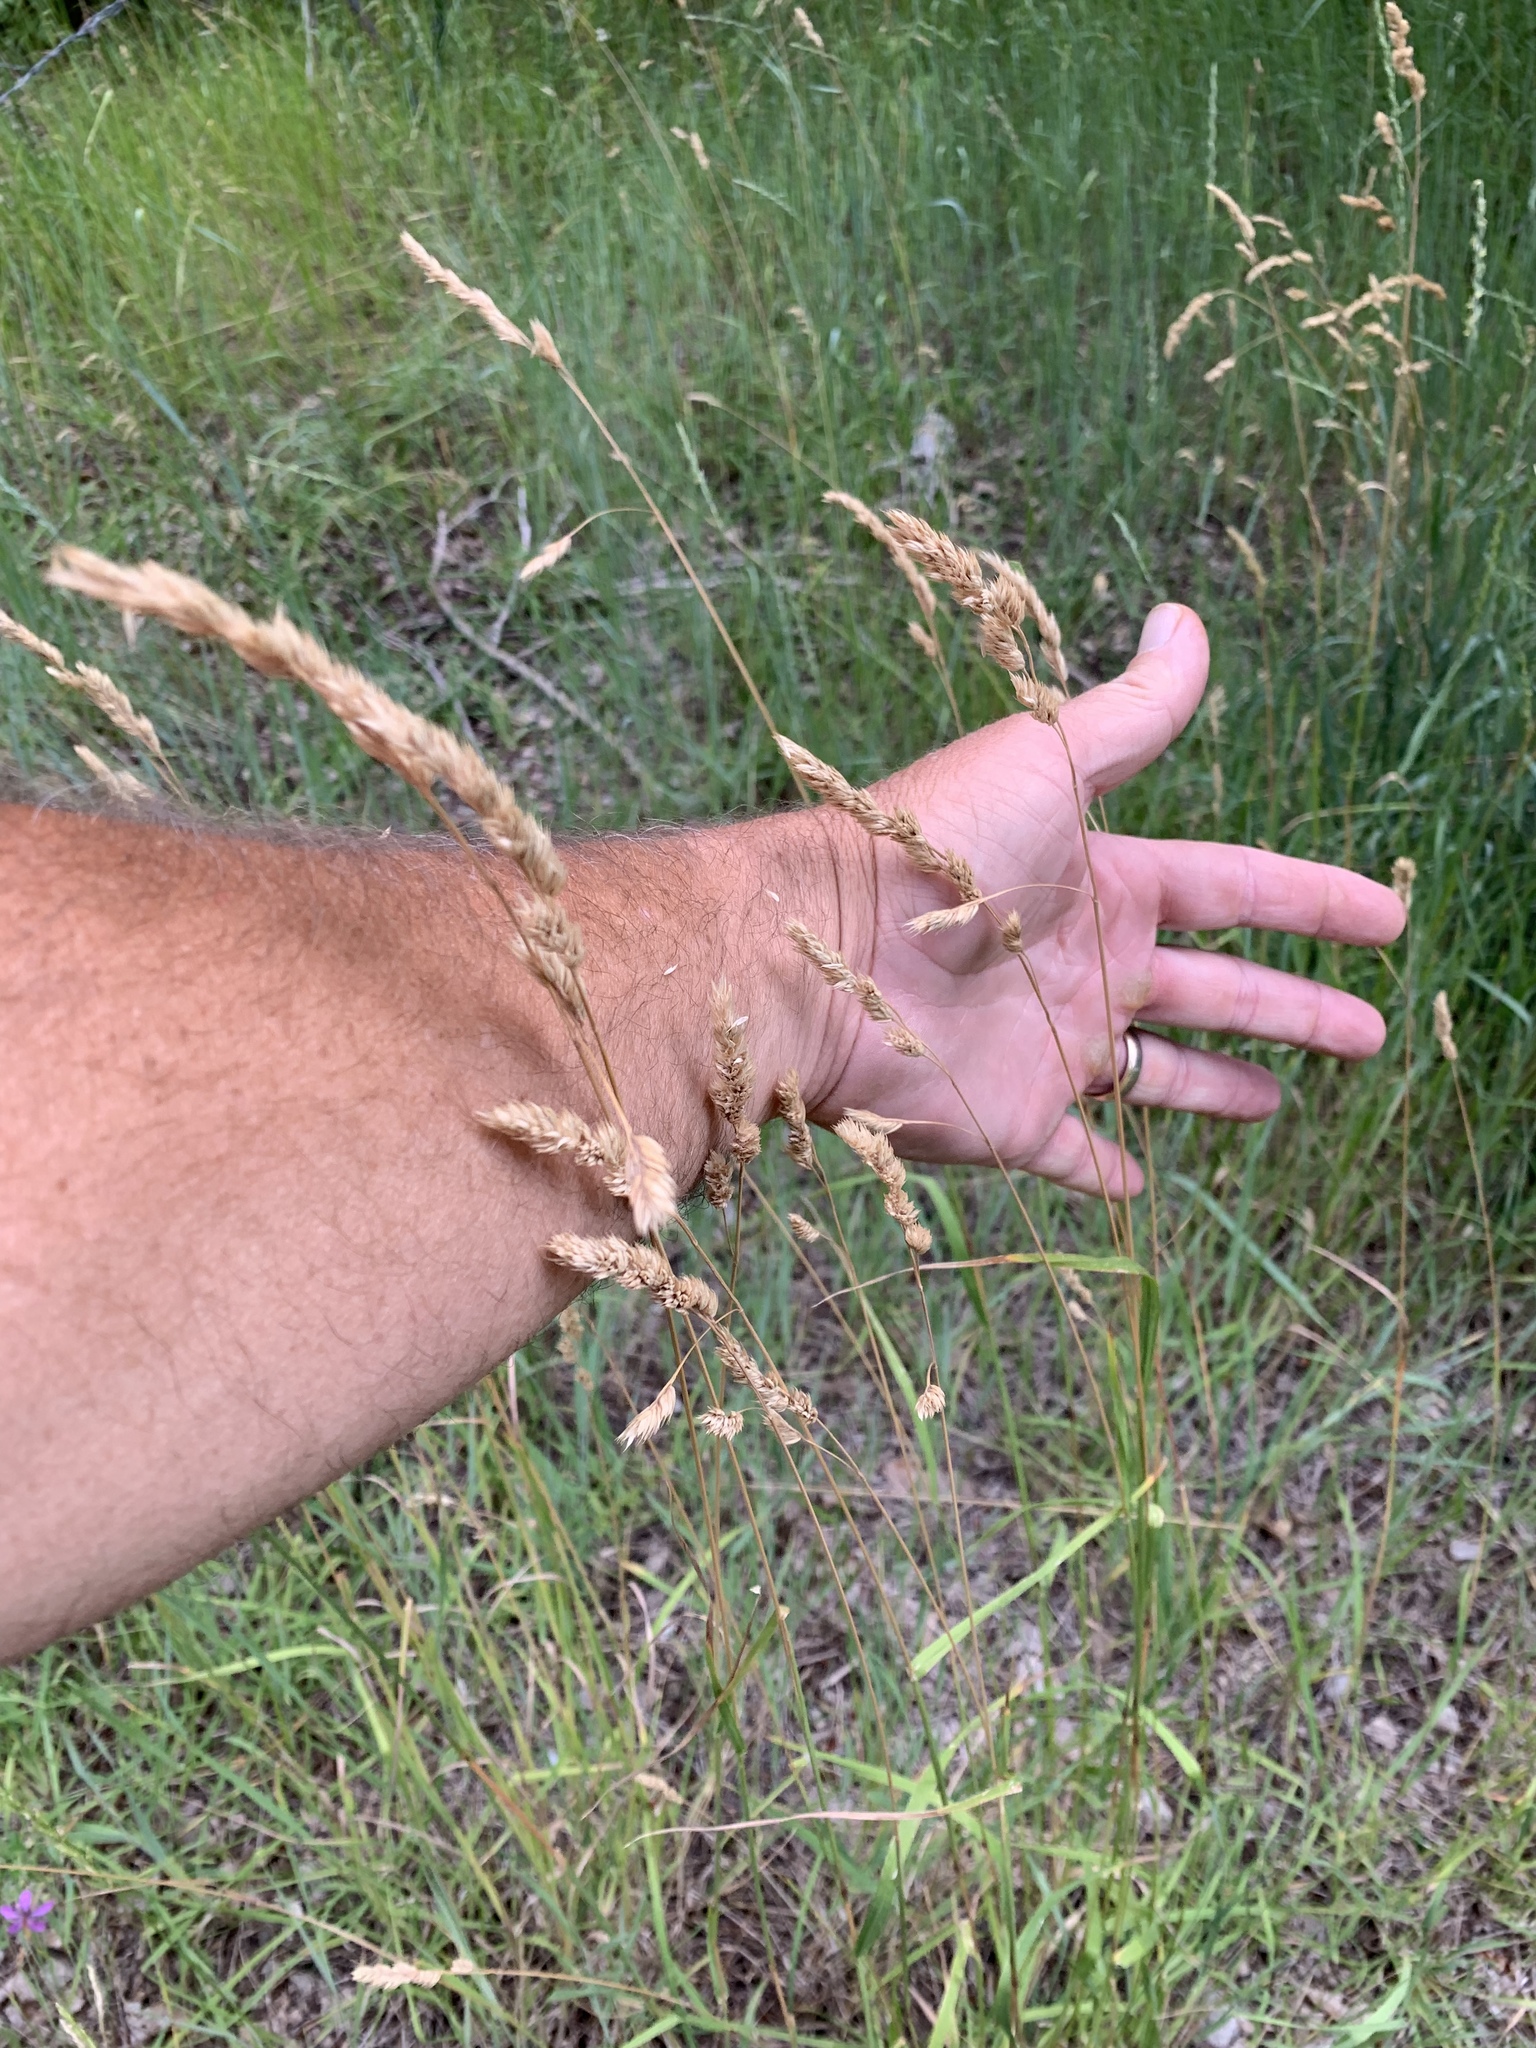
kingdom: Plantae
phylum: Tracheophyta
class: Liliopsida
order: Poales
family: Poaceae
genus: Dactylis
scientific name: Dactylis glomerata
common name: Orchardgrass
